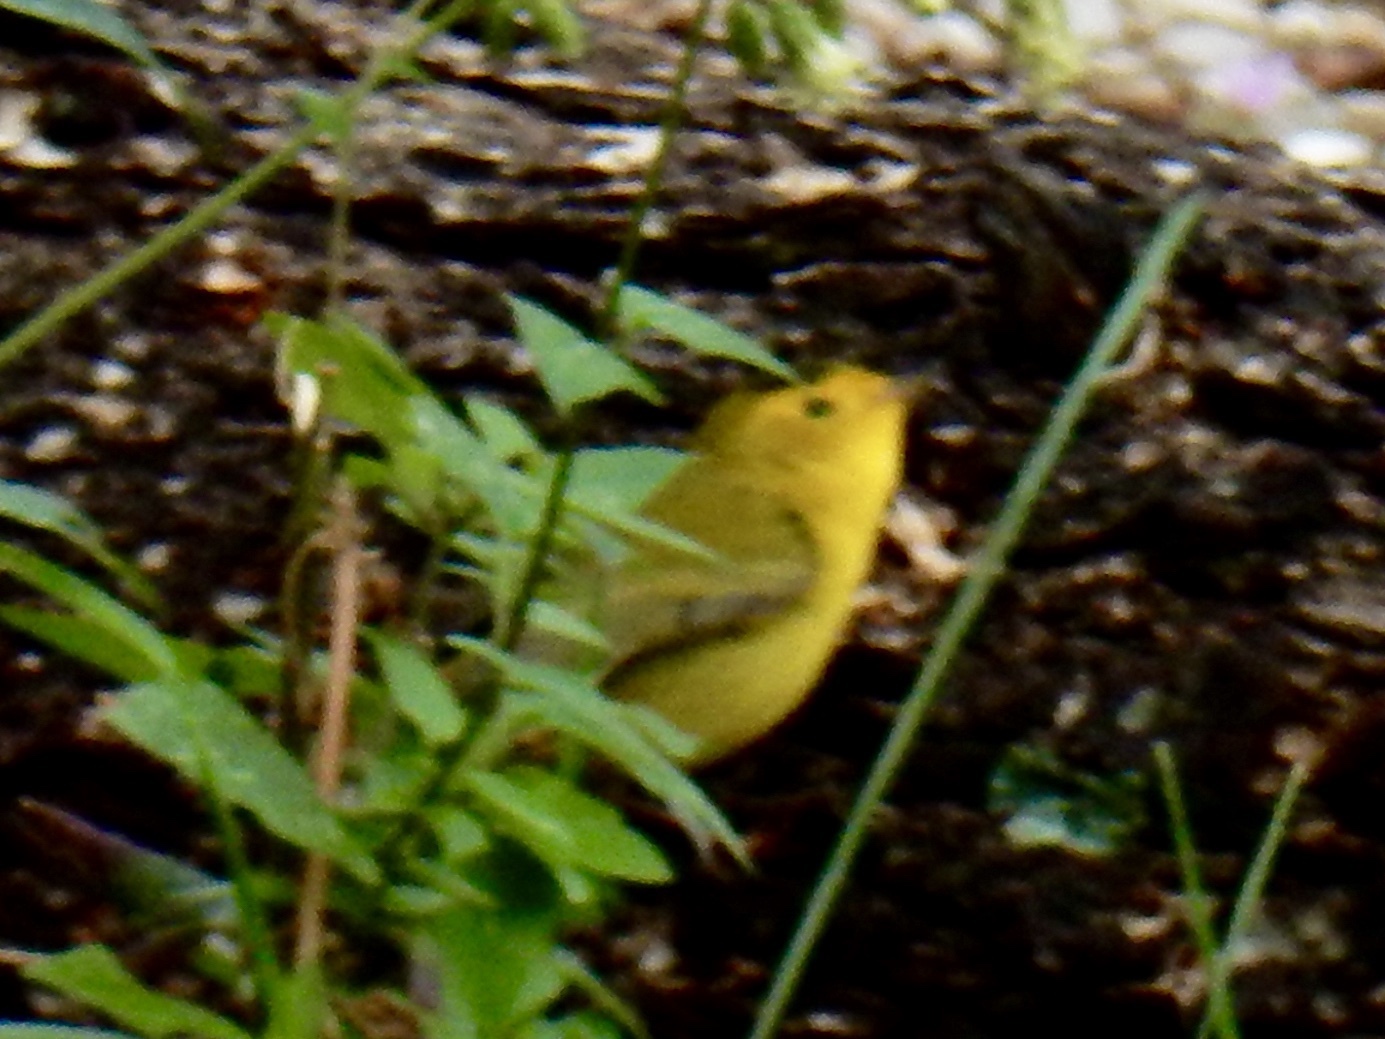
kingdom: Animalia
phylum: Chordata
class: Aves
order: Passeriformes
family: Parulidae
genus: Cardellina
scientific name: Cardellina pusilla
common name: Wilson's warbler
